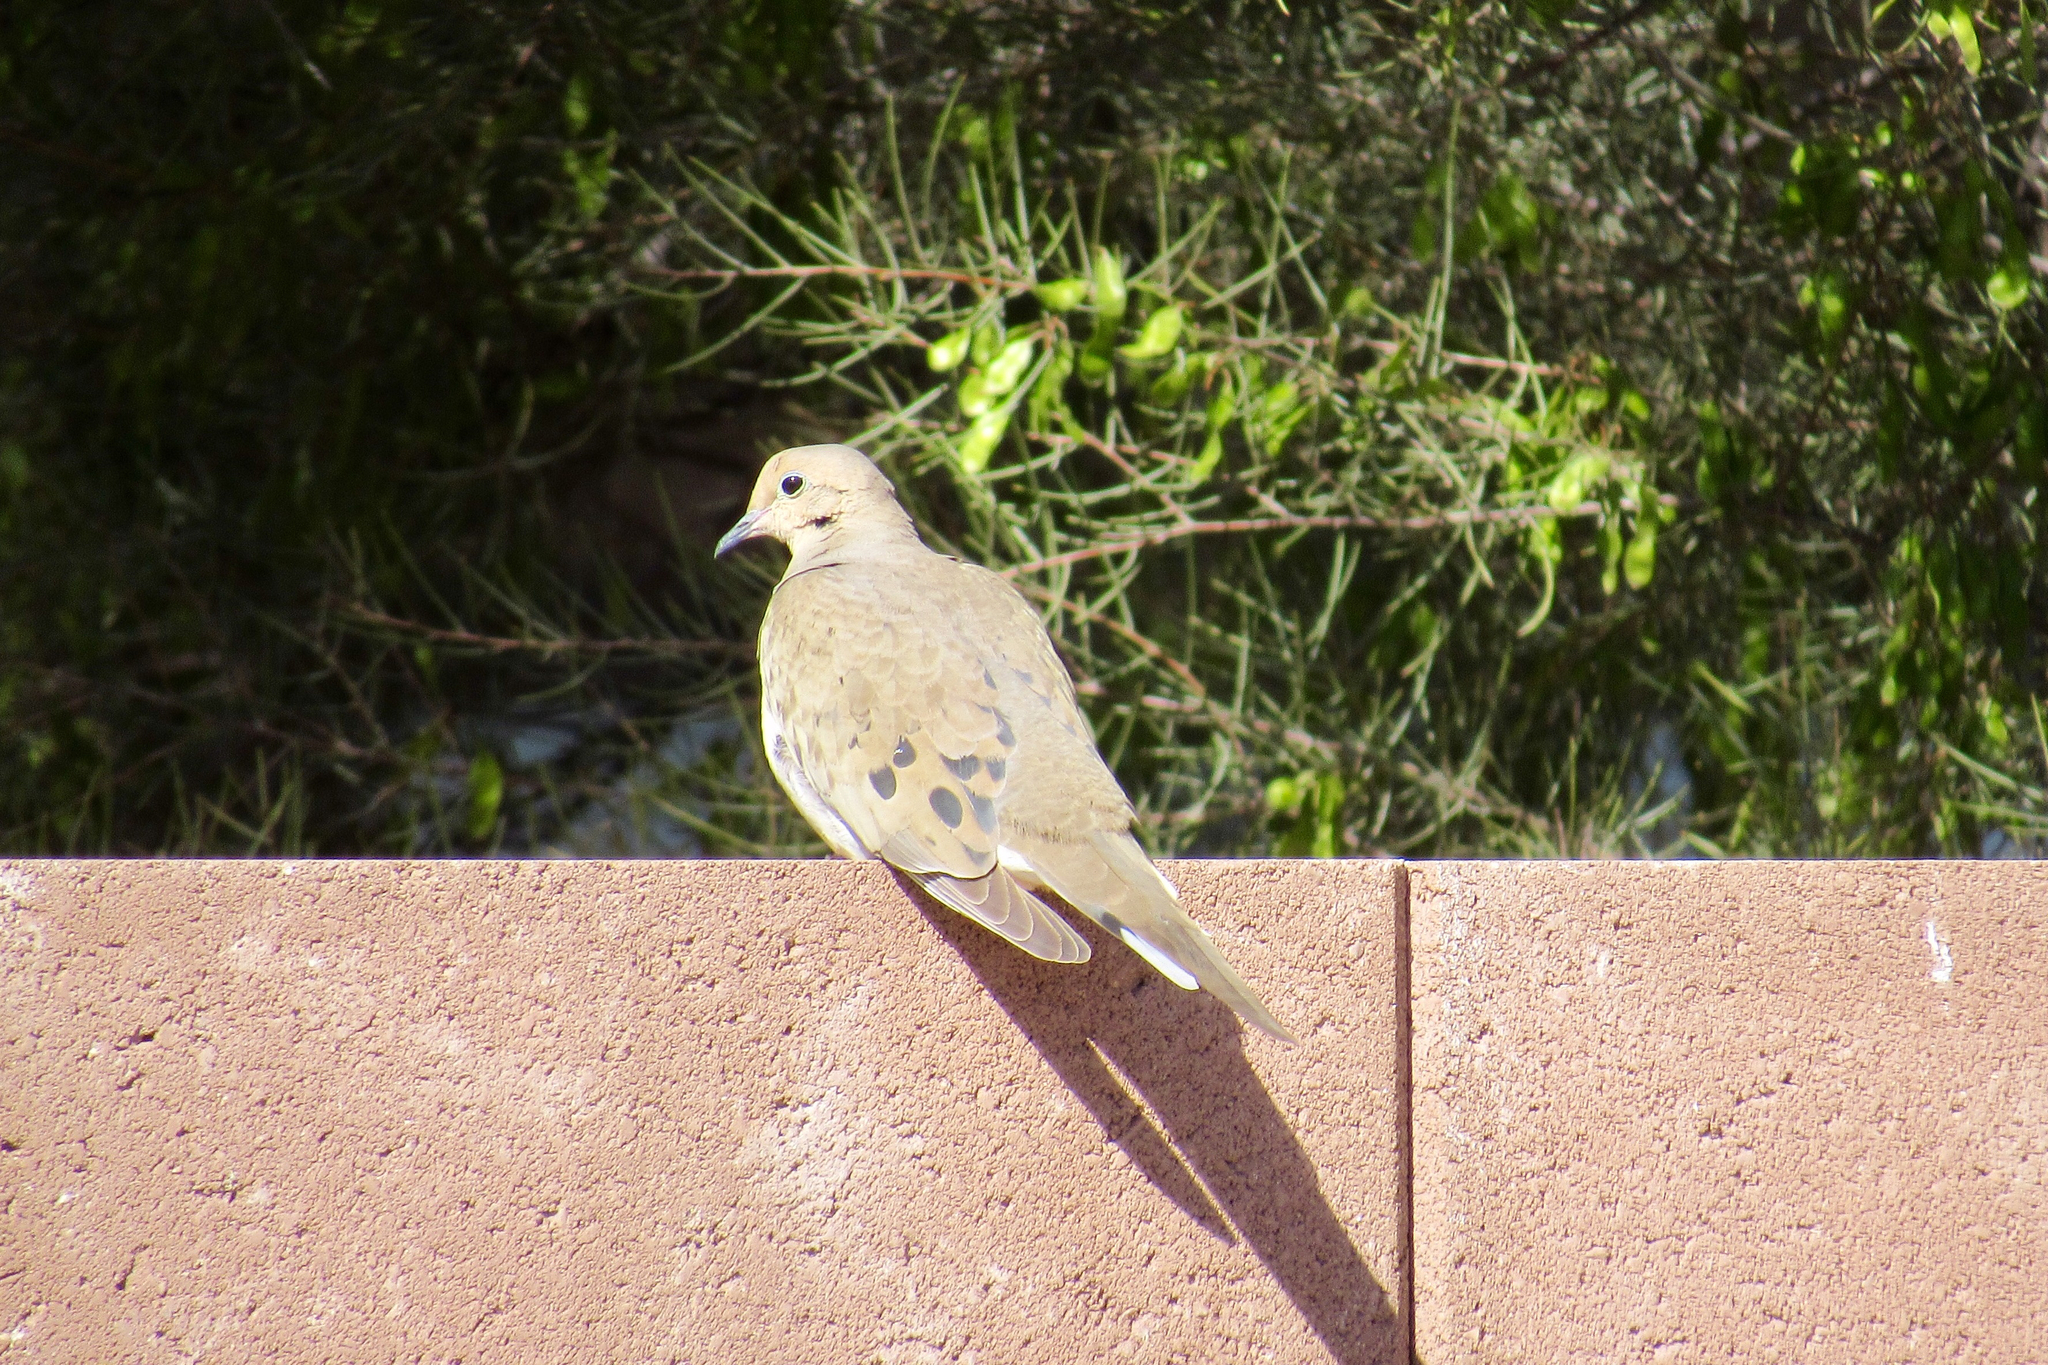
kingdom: Animalia
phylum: Chordata
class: Aves
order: Columbiformes
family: Columbidae
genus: Zenaida
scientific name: Zenaida macroura
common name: Mourning dove
